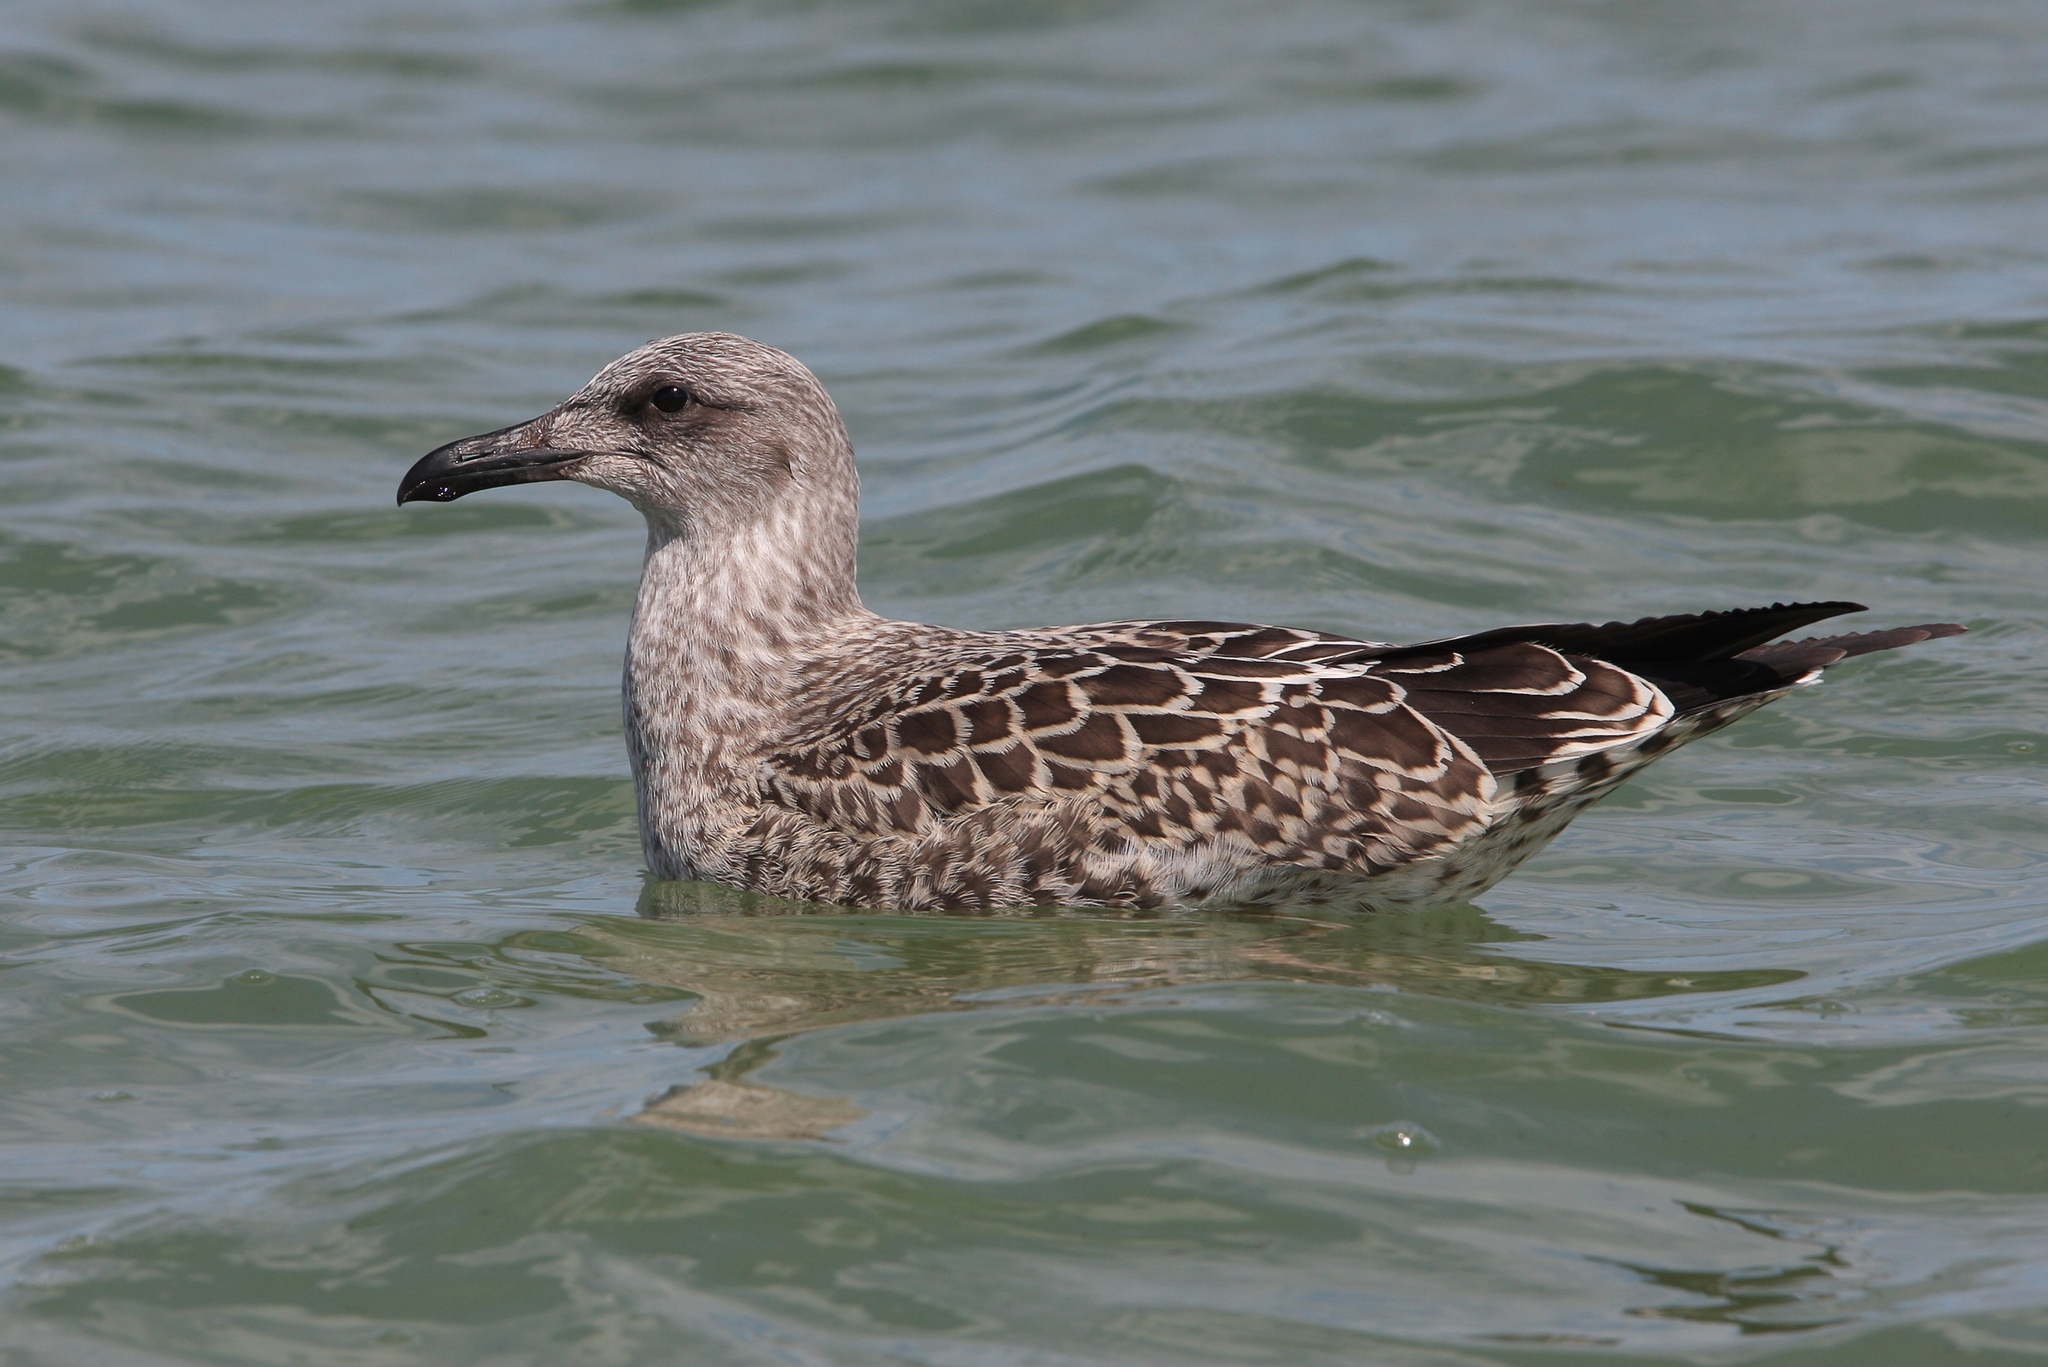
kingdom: Animalia
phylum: Chordata
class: Aves
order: Charadriiformes
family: Laridae
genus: Larus
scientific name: Larus fuscus
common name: Lesser black-backed gull
